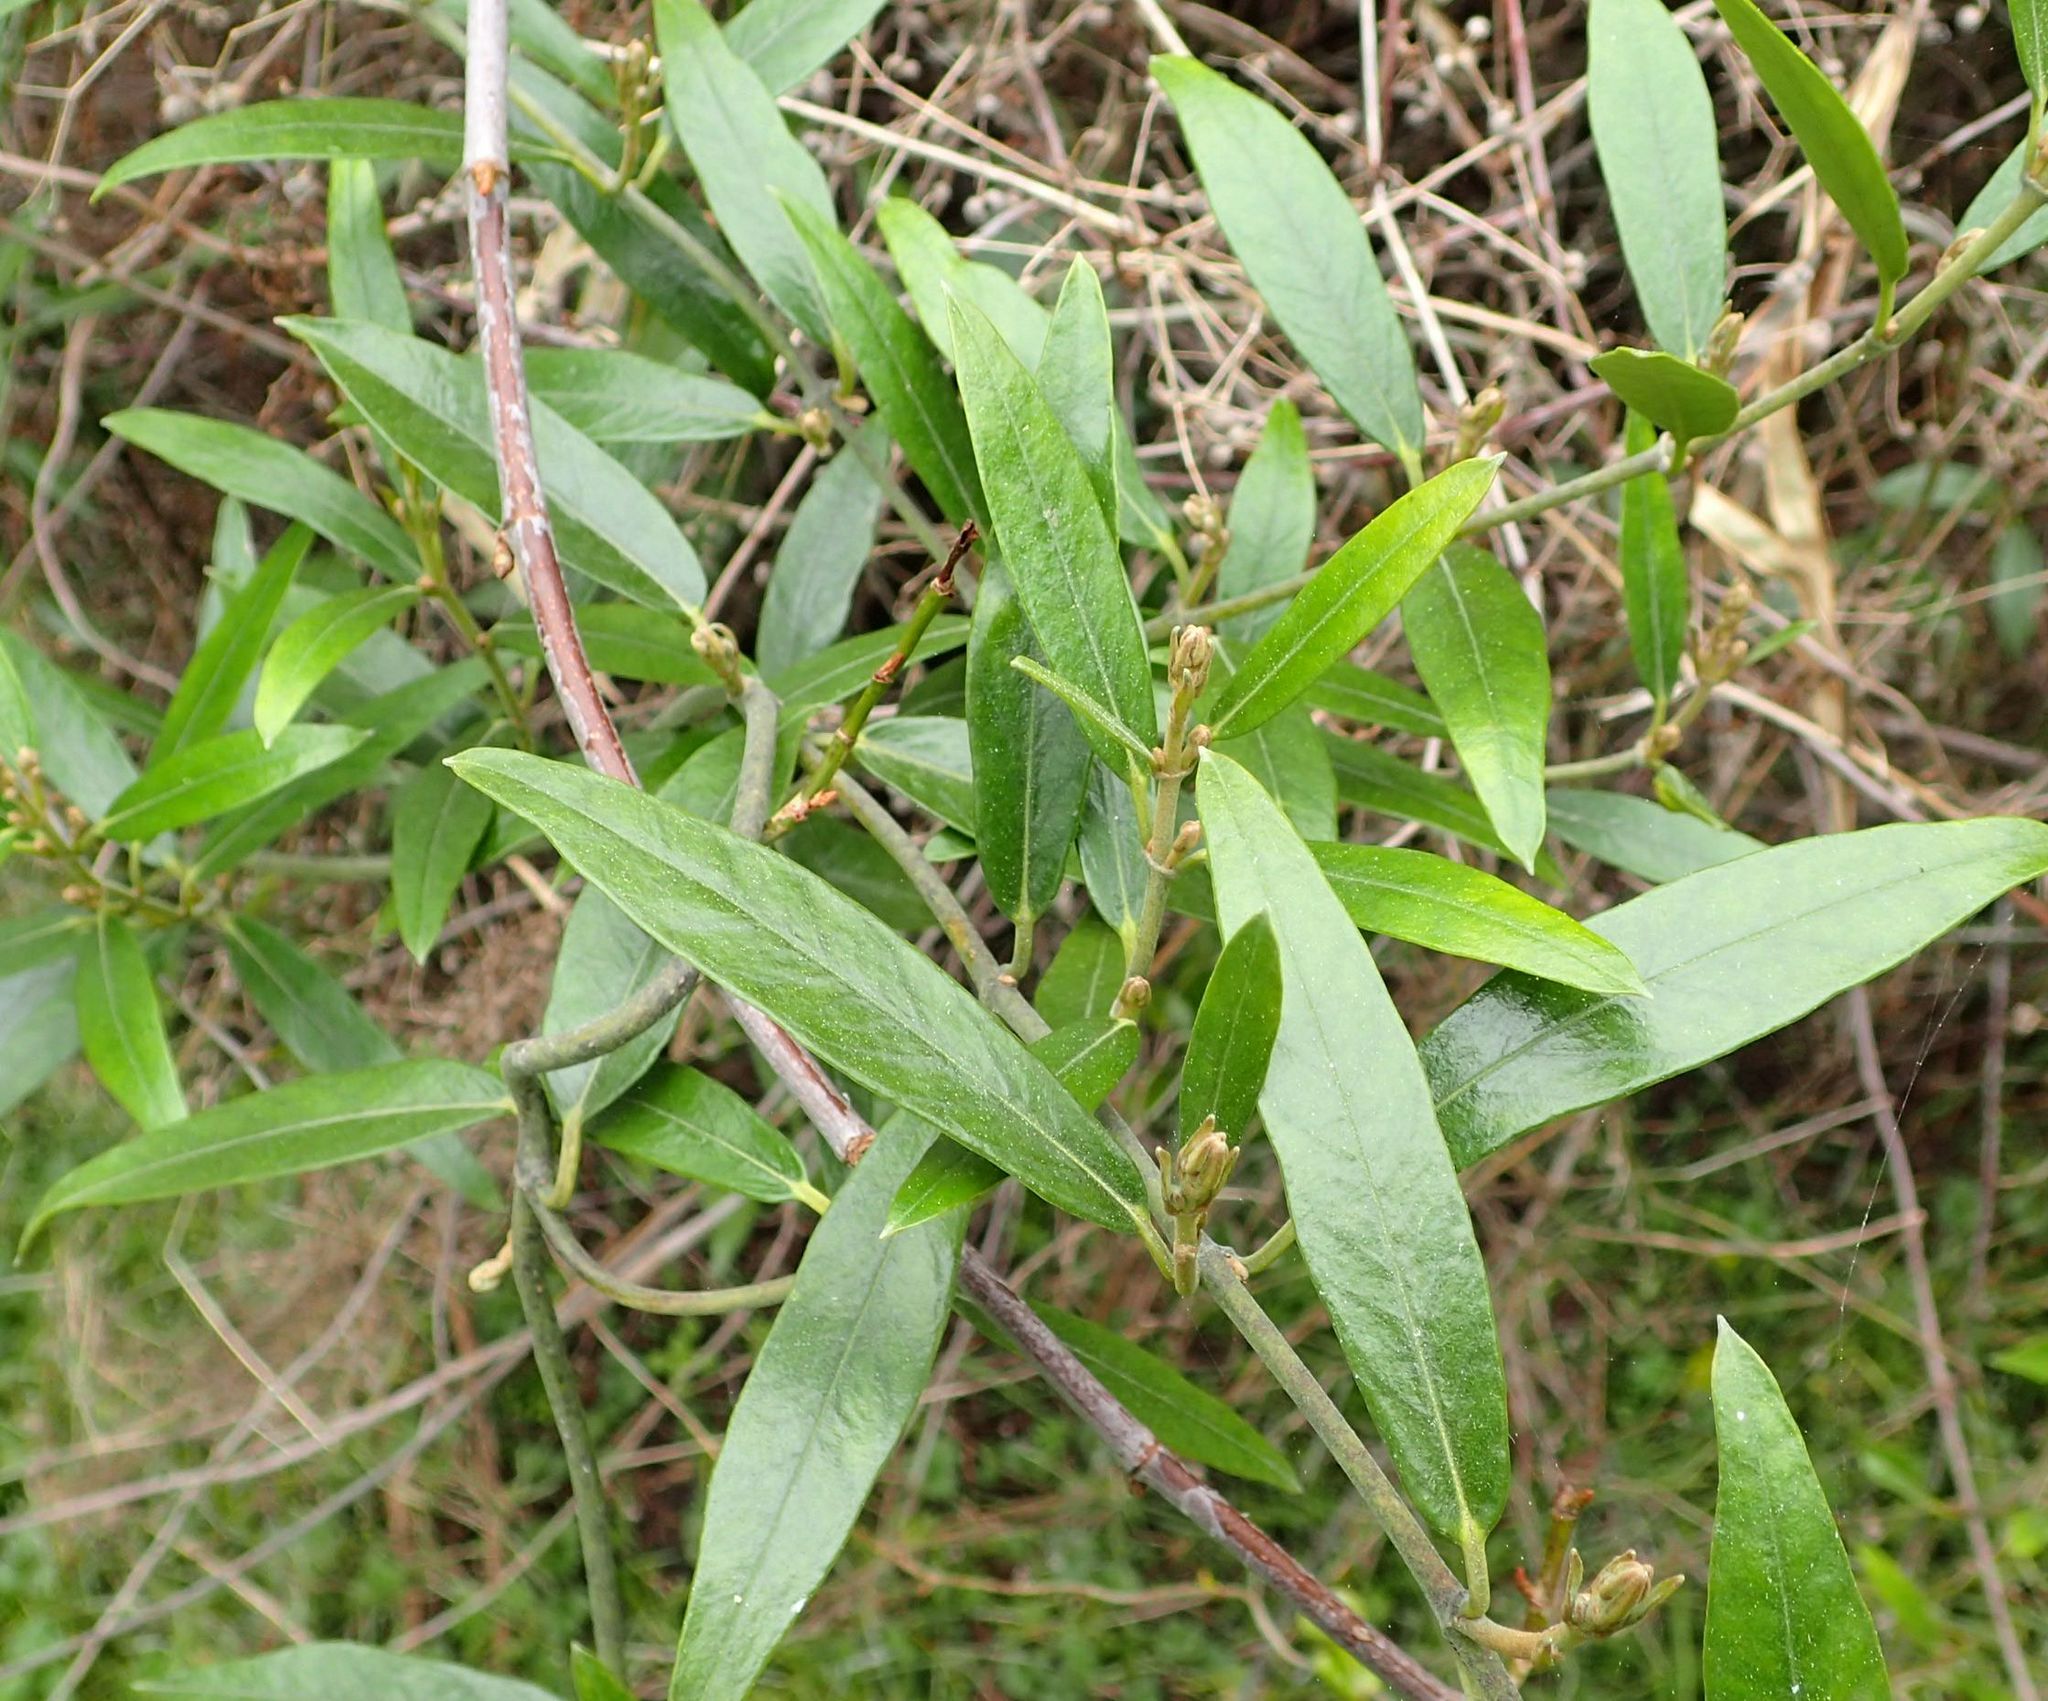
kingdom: Plantae
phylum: Tracheophyta
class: Magnoliopsida
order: Gentianales
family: Apocynaceae
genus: Parsonsia
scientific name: Parsonsia heterophylla
